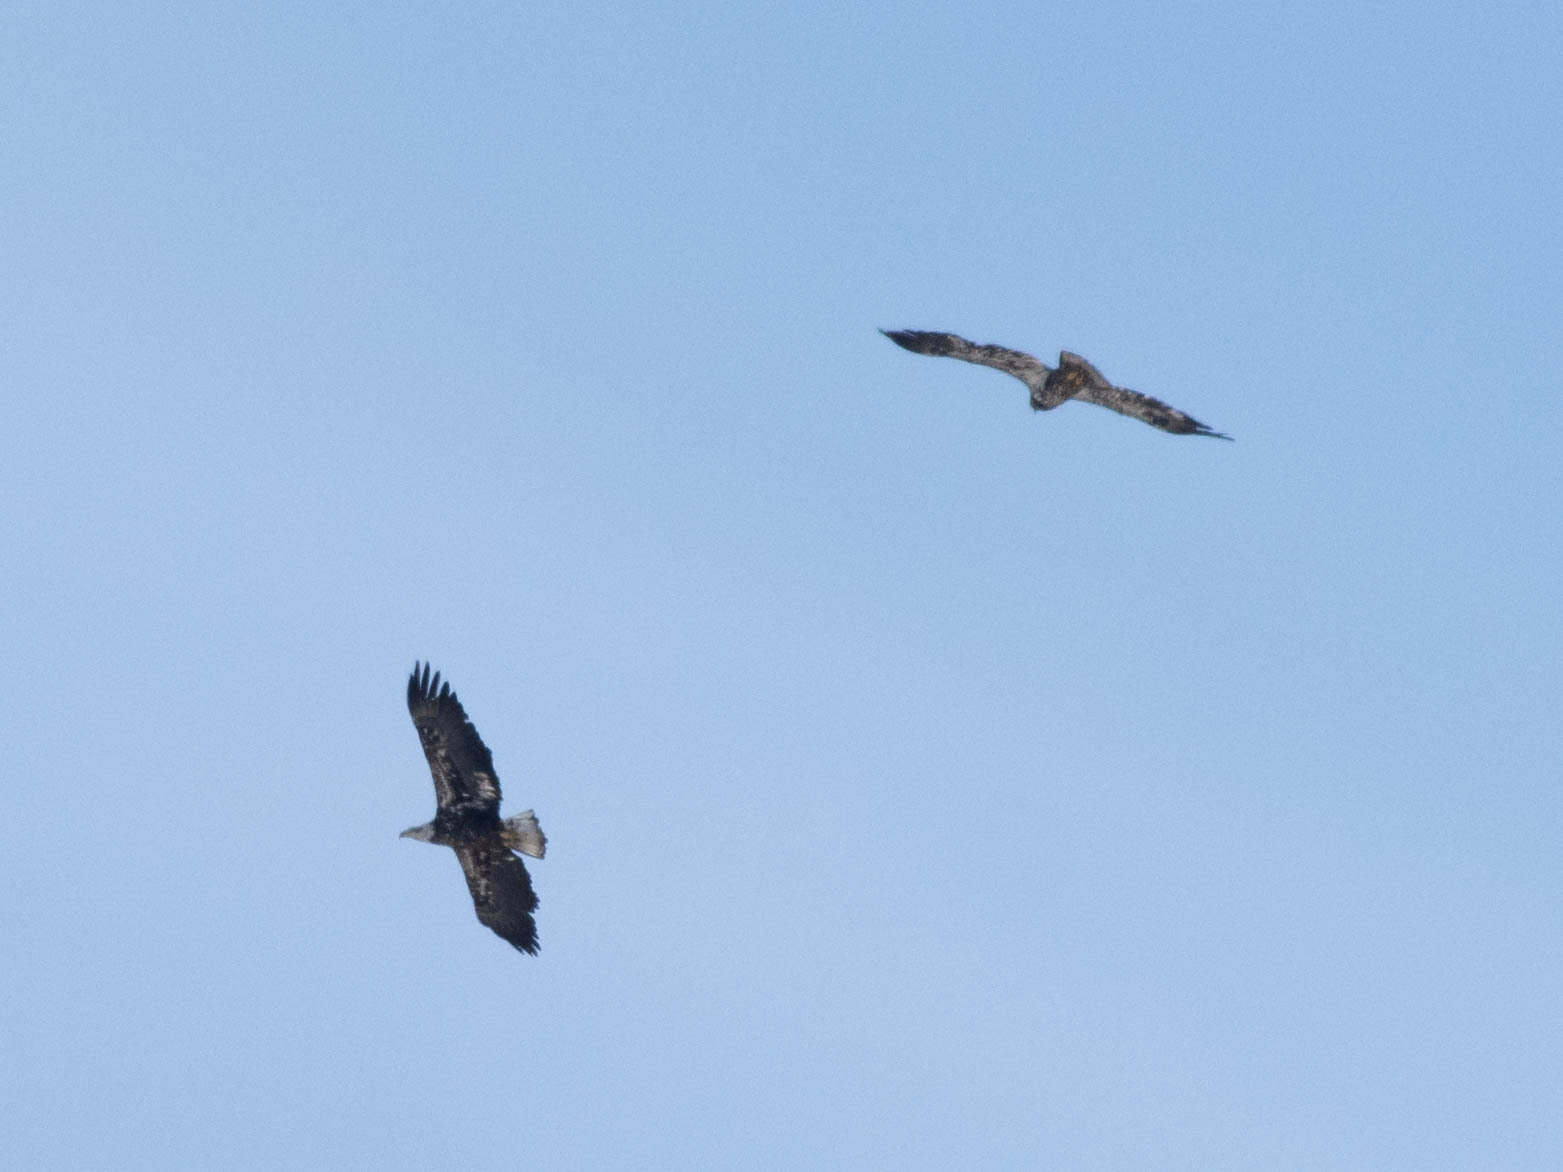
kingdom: Animalia
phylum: Chordata
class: Aves
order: Accipitriformes
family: Accipitridae
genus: Haliaeetus
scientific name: Haliaeetus leucocephalus
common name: Bald eagle
